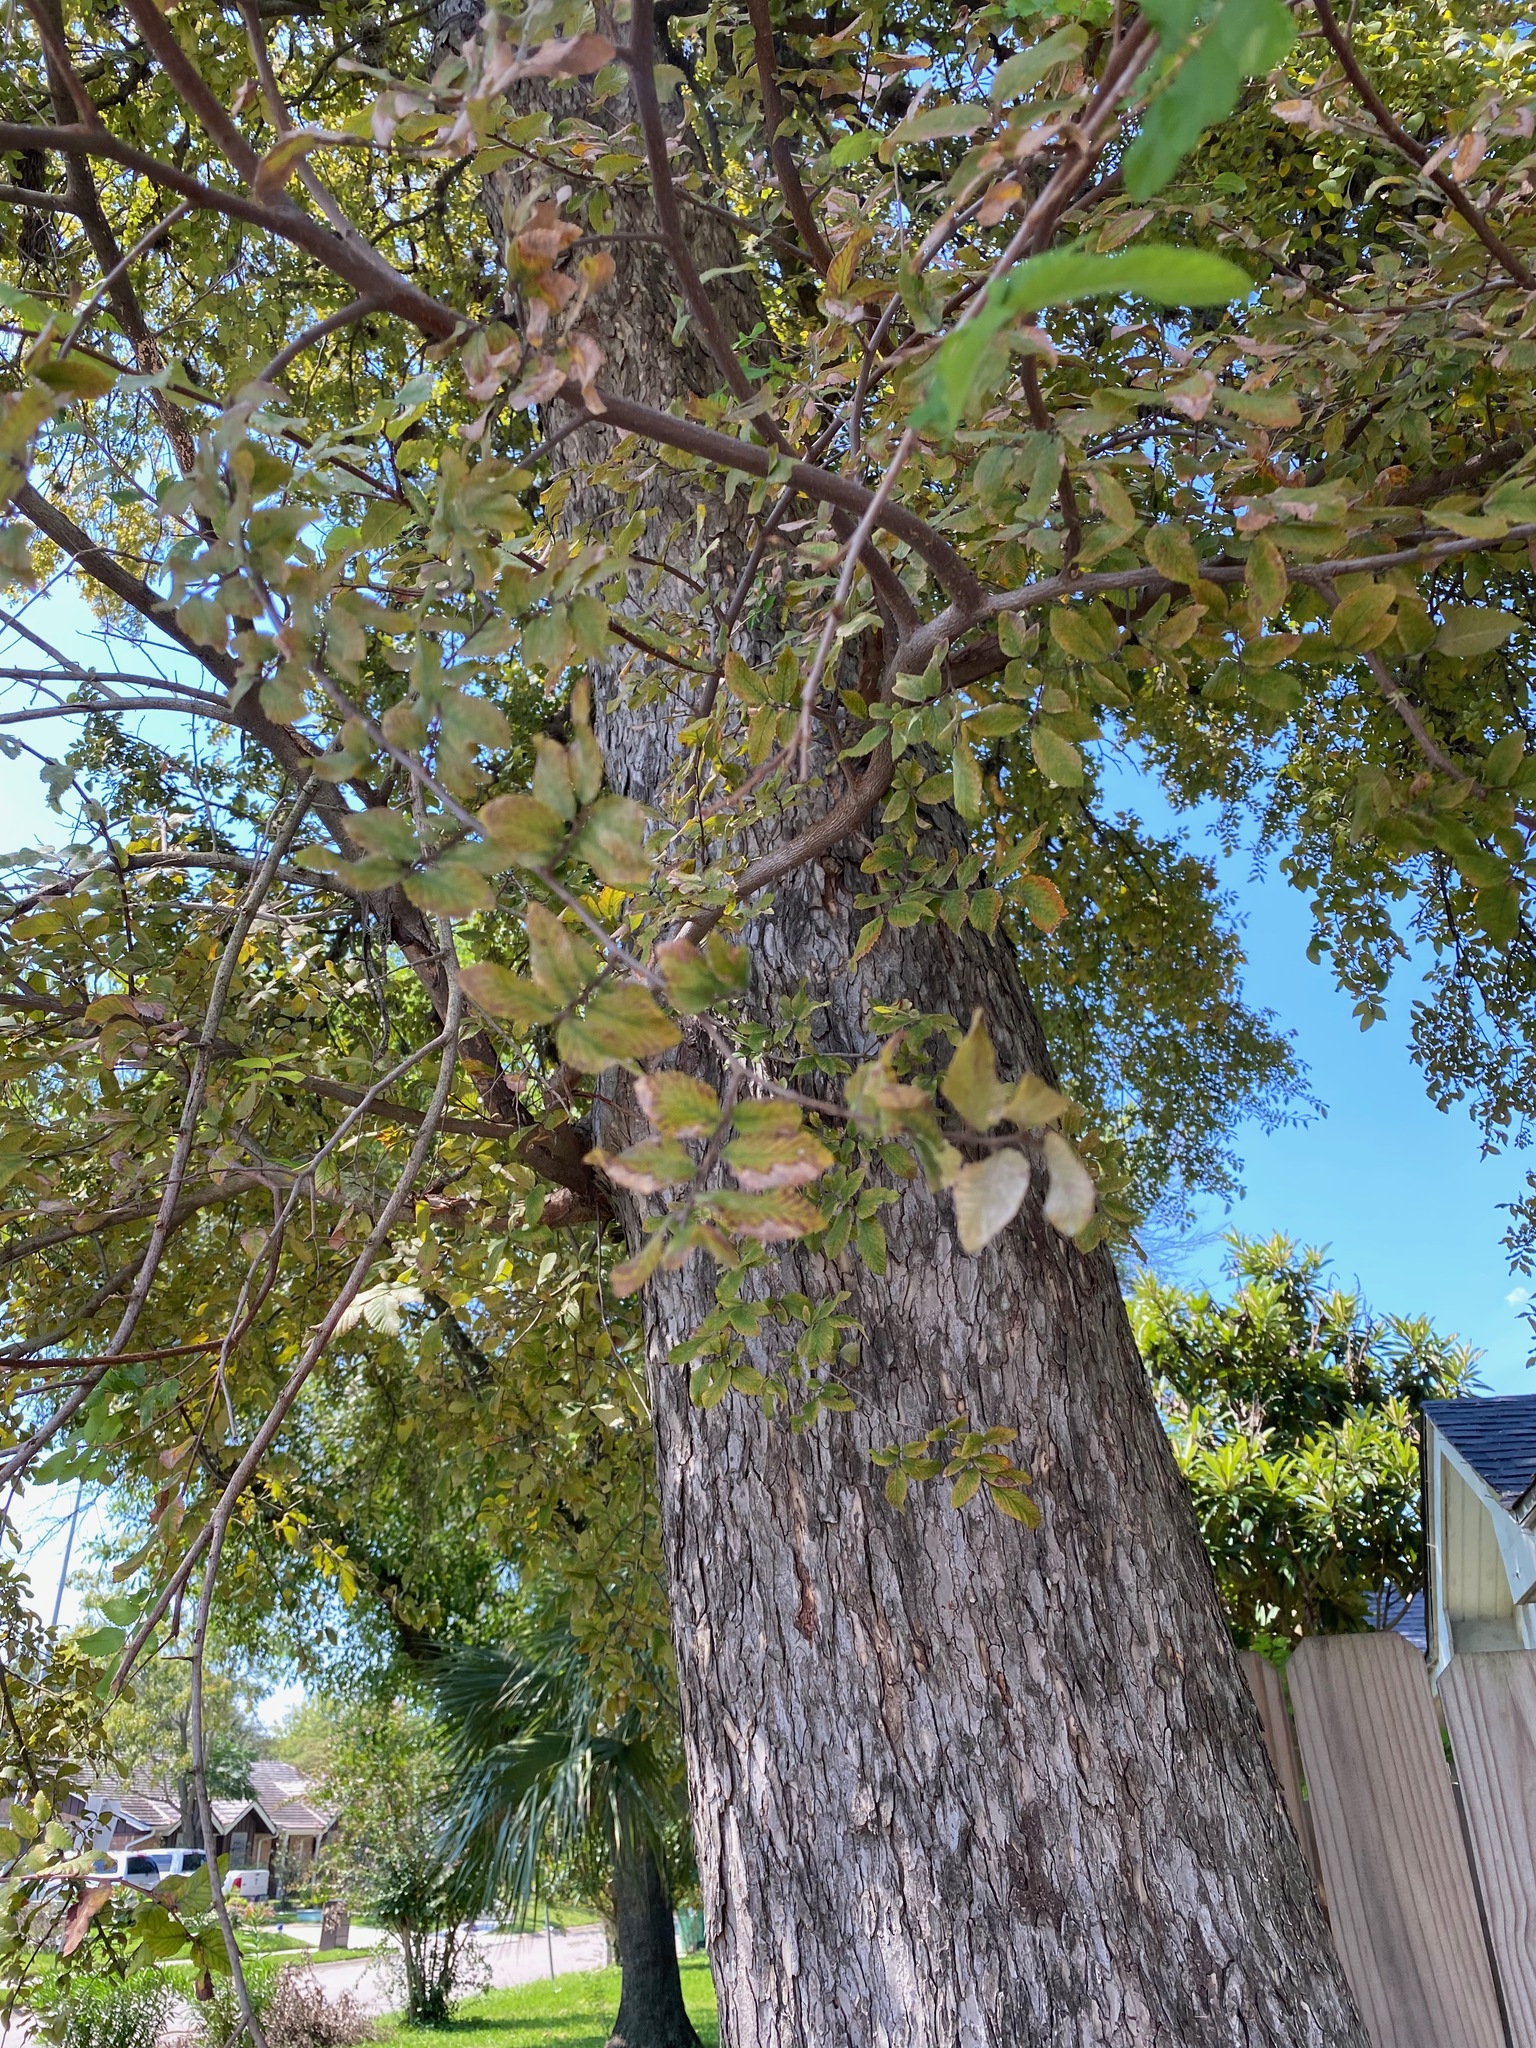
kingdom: Plantae
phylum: Tracheophyta
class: Magnoliopsida
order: Rosales
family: Ulmaceae
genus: Ulmus
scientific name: Ulmus crassifolia
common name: Basket elm
